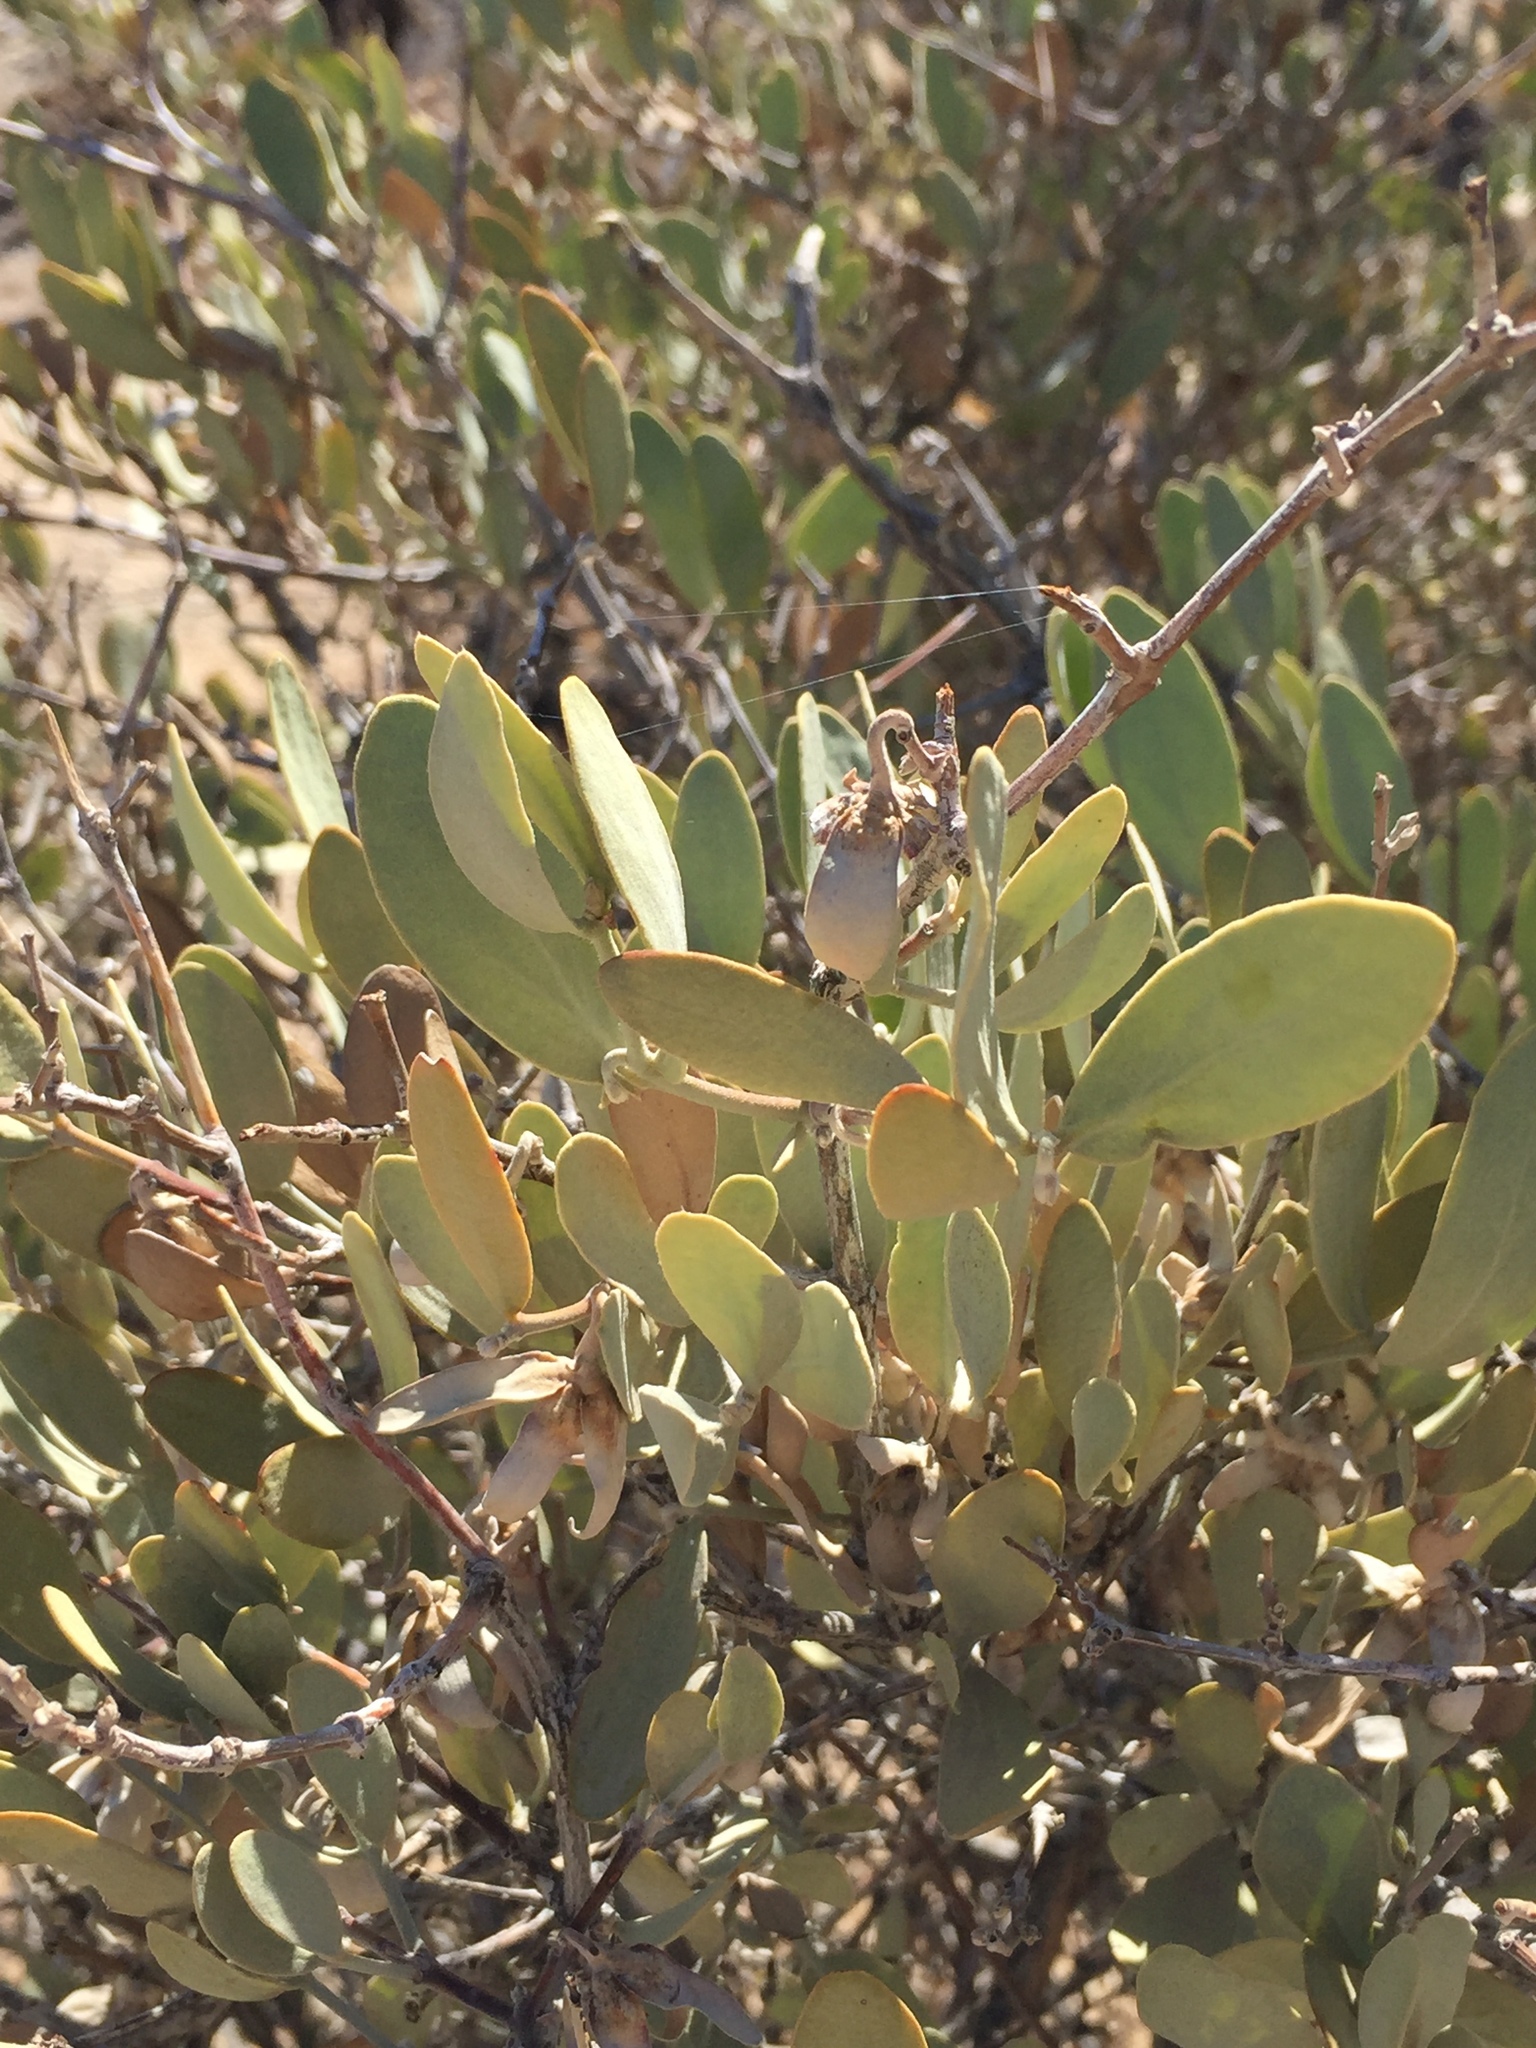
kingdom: Plantae
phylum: Tracheophyta
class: Magnoliopsida
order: Caryophyllales
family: Simmondsiaceae
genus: Simmondsia
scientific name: Simmondsia chinensis
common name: Jojoba
